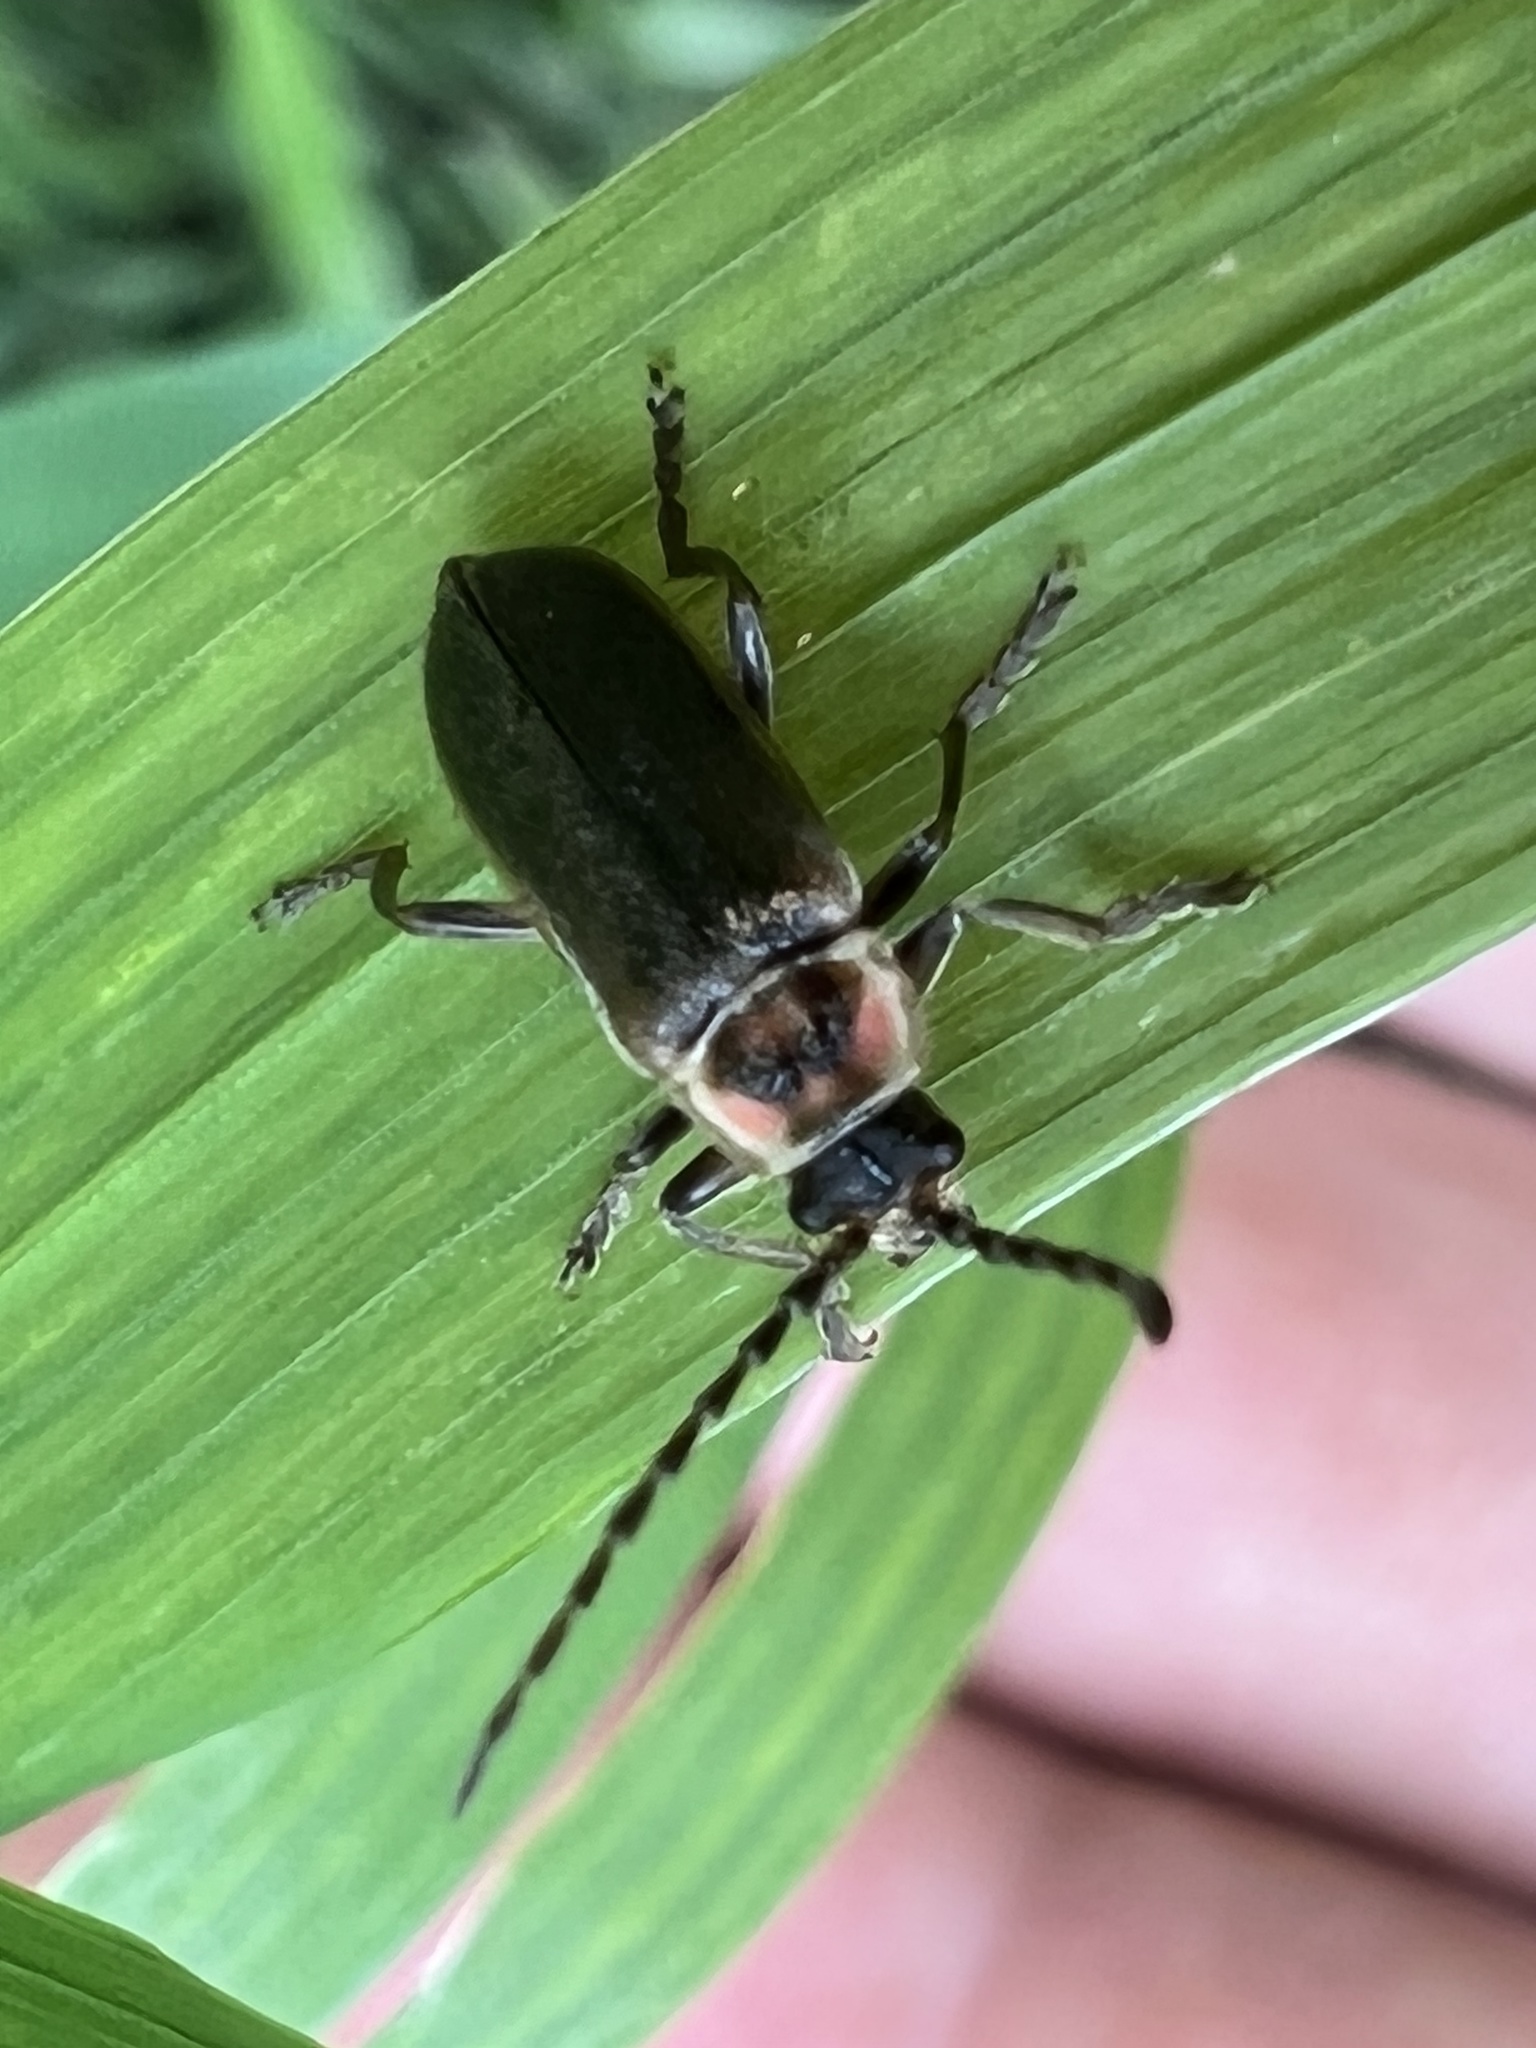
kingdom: Animalia
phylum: Arthropoda
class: Insecta
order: Coleoptera
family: Cantharidae
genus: Atalantycha
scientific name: Atalantycha dentigera
